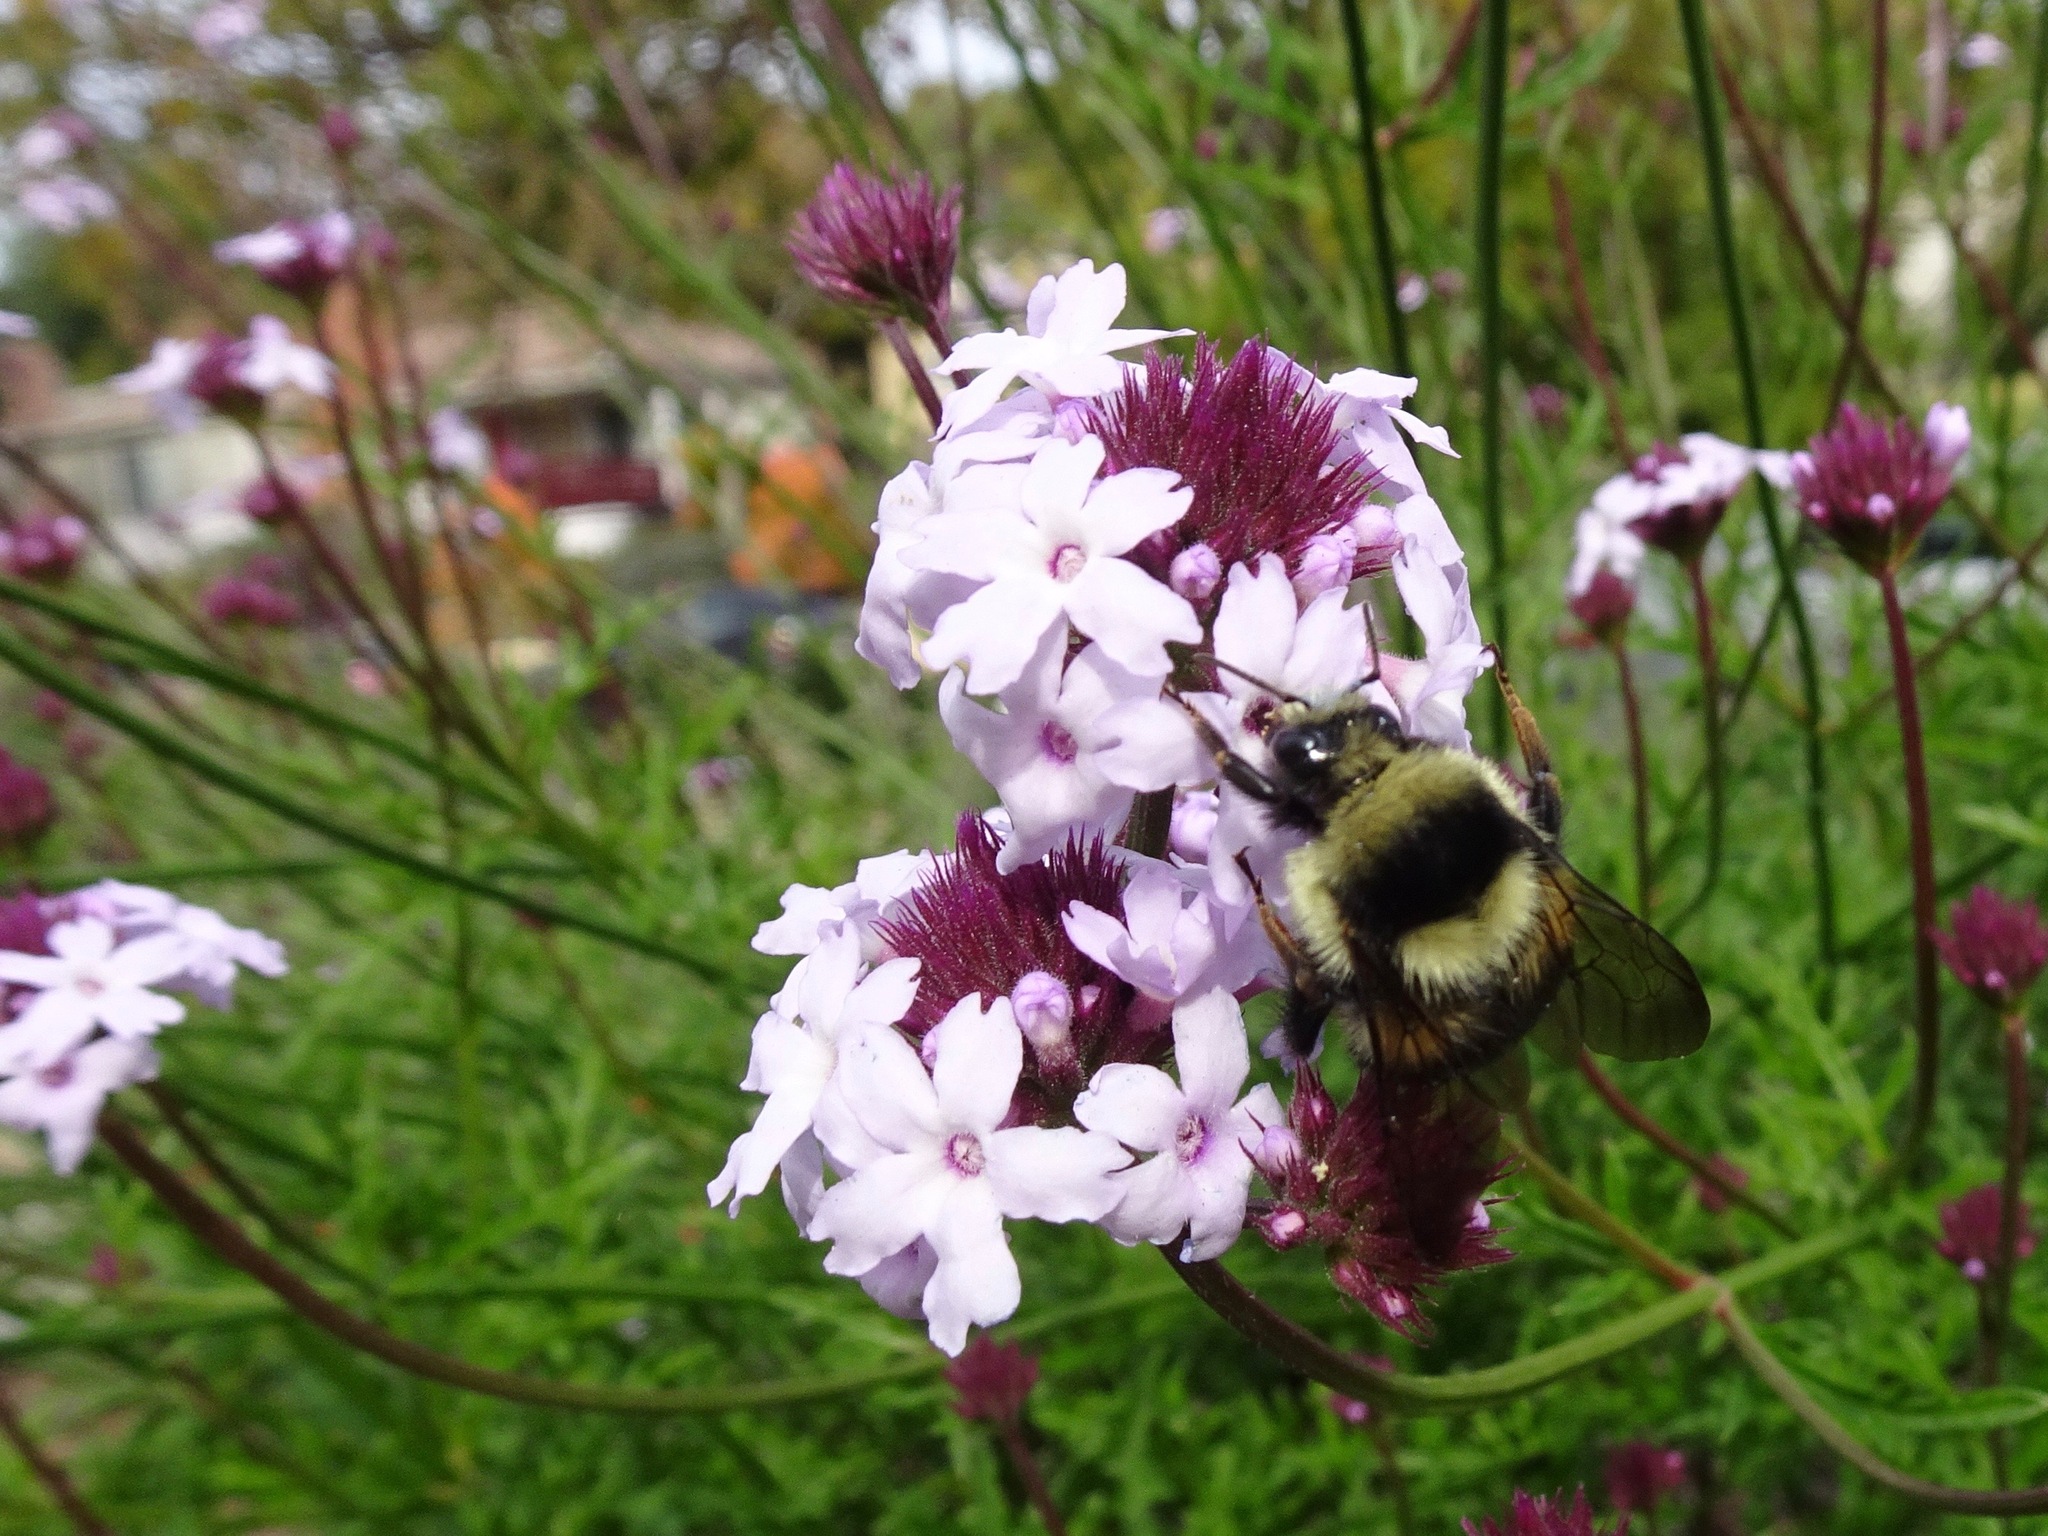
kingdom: Animalia
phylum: Arthropoda
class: Insecta
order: Hymenoptera
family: Apidae
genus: Bombus
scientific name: Bombus melanopygus
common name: Black tail bumble bee
